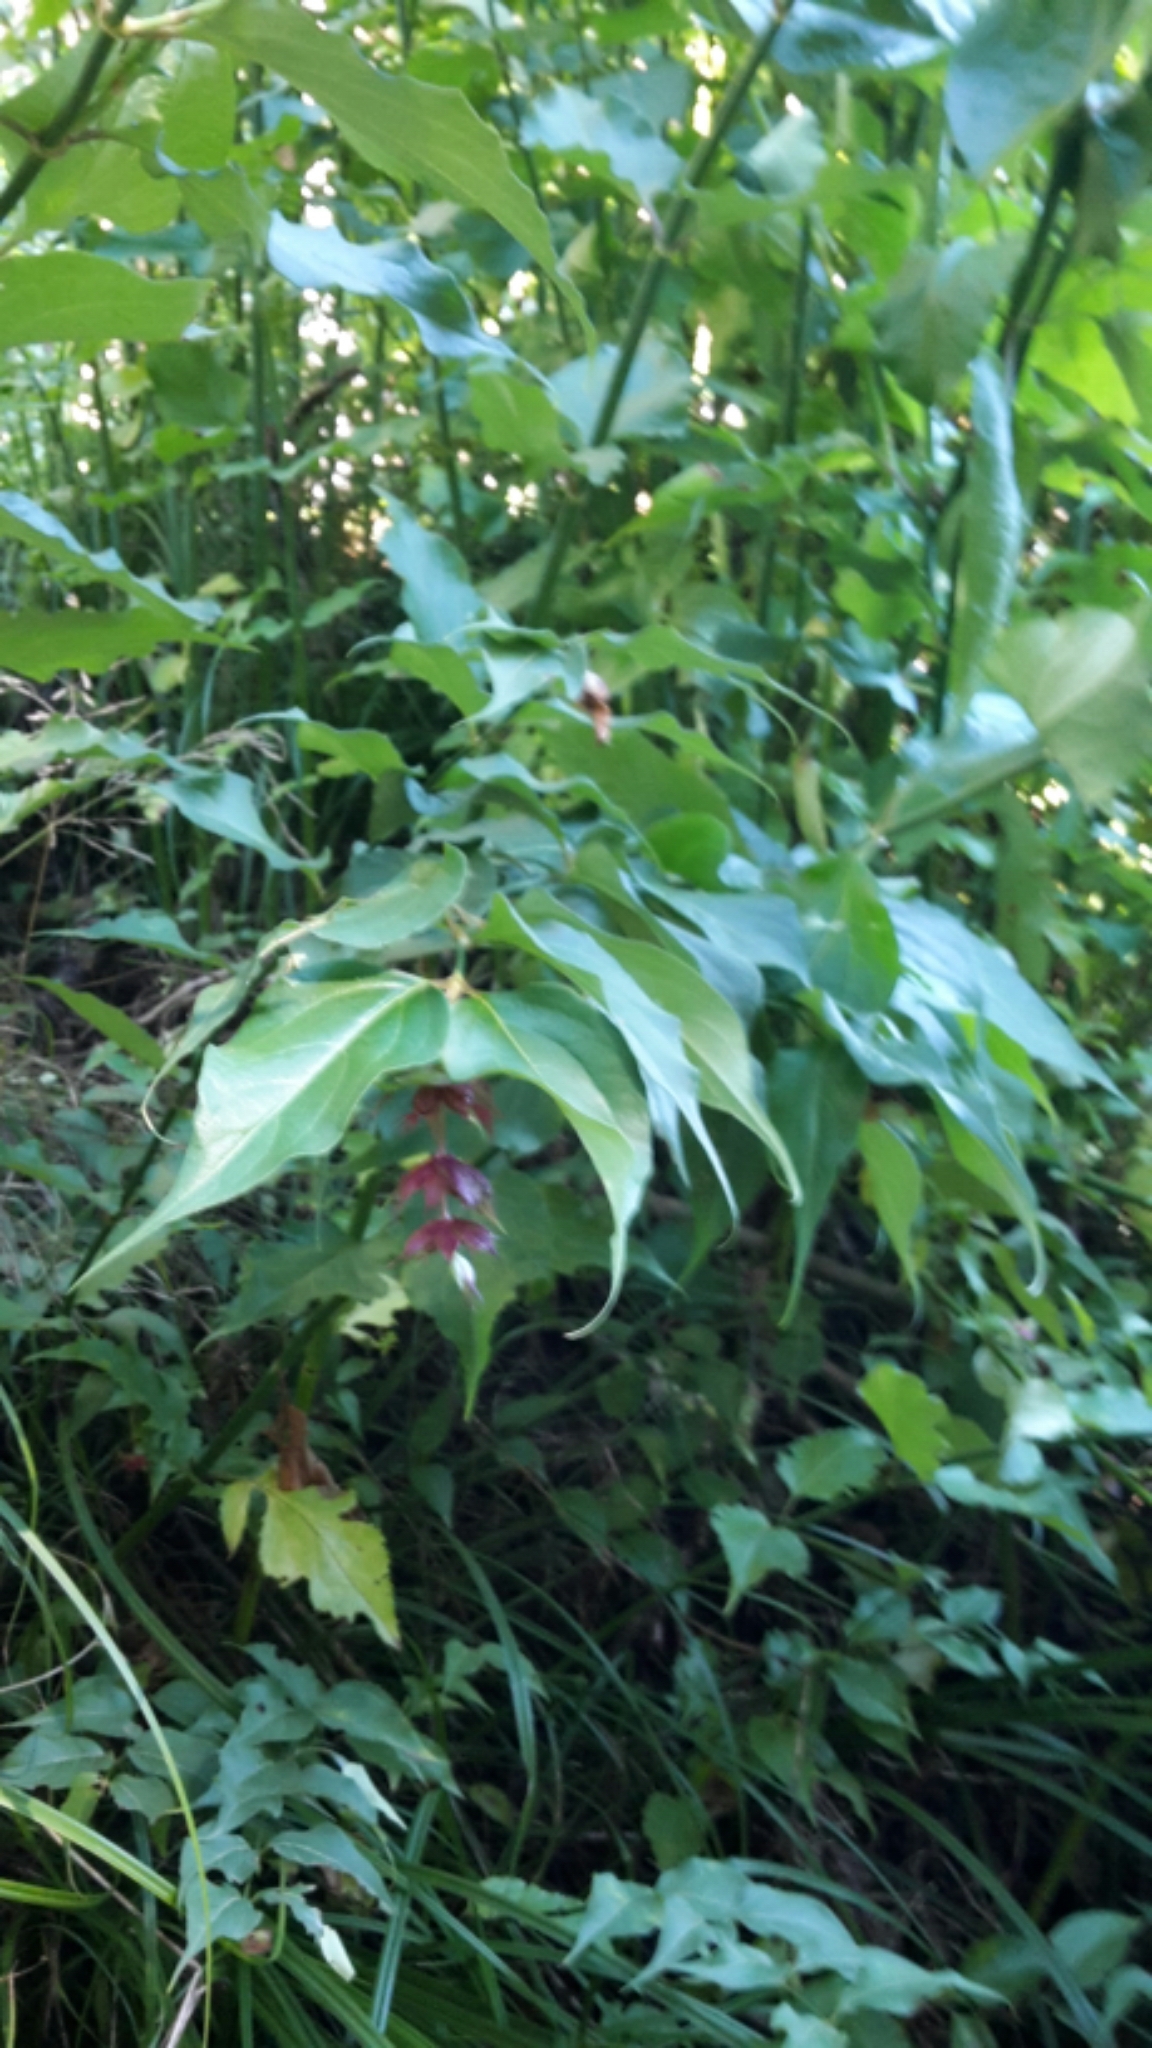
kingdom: Plantae
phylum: Tracheophyta
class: Magnoliopsida
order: Dipsacales
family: Caprifoliaceae
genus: Leycesteria
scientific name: Leycesteria formosa
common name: Himalayan honeysuckle
